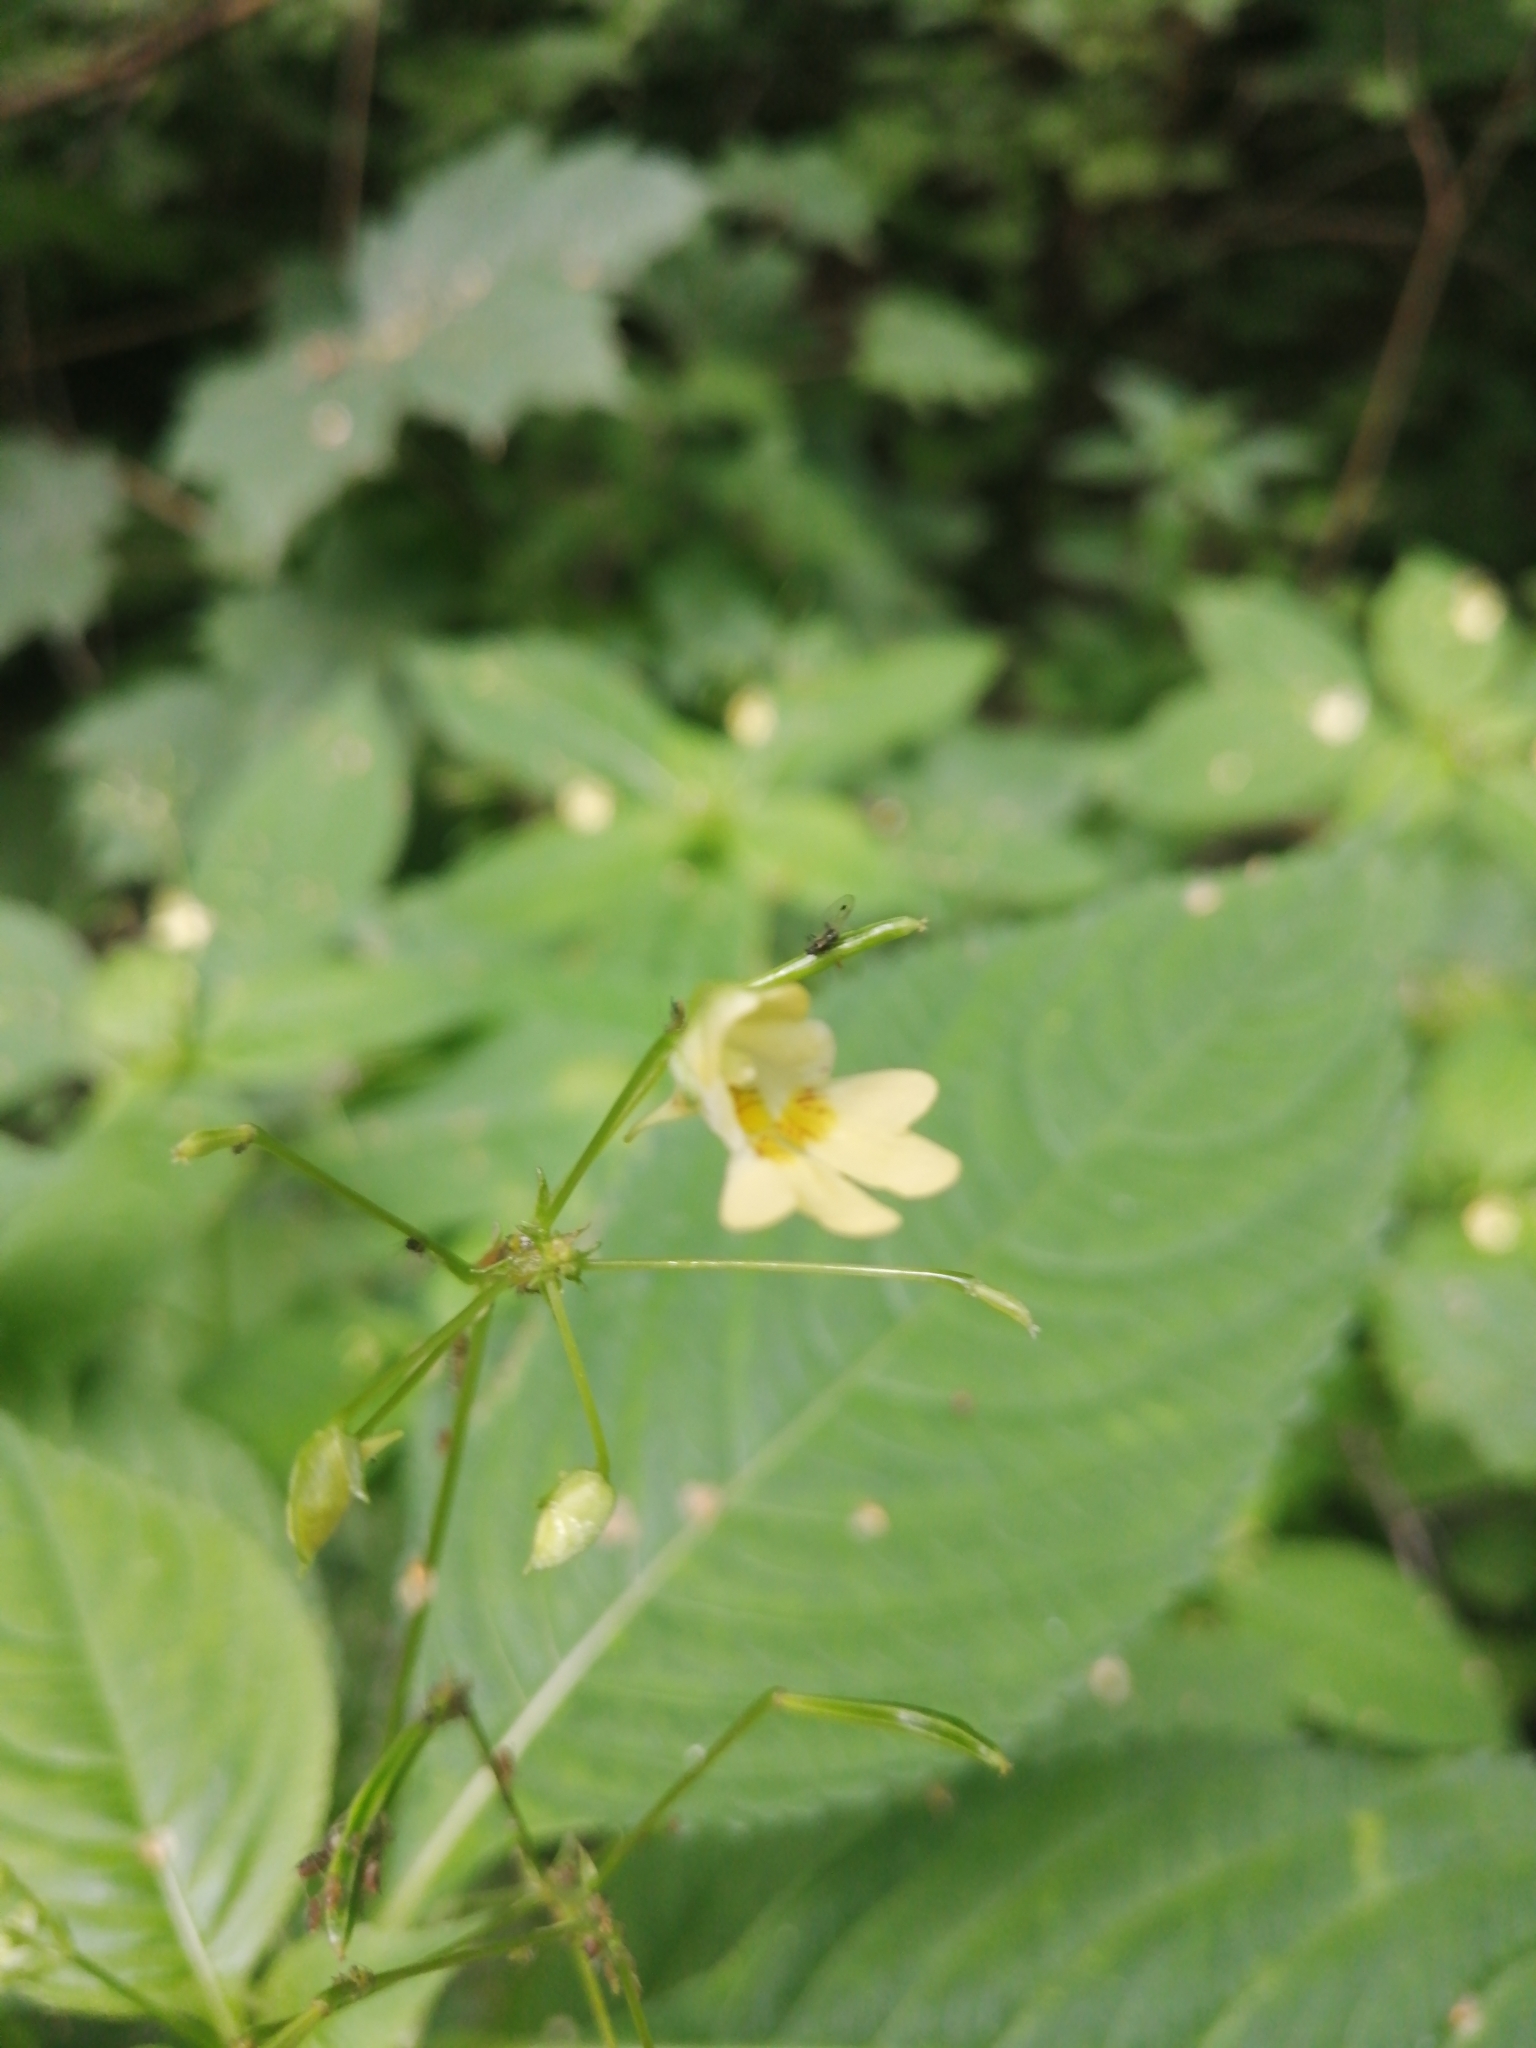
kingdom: Plantae
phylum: Tracheophyta
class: Magnoliopsida
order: Ericales
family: Balsaminaceae
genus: Impatiens
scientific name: Impatiens parviflora
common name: Small balsam
